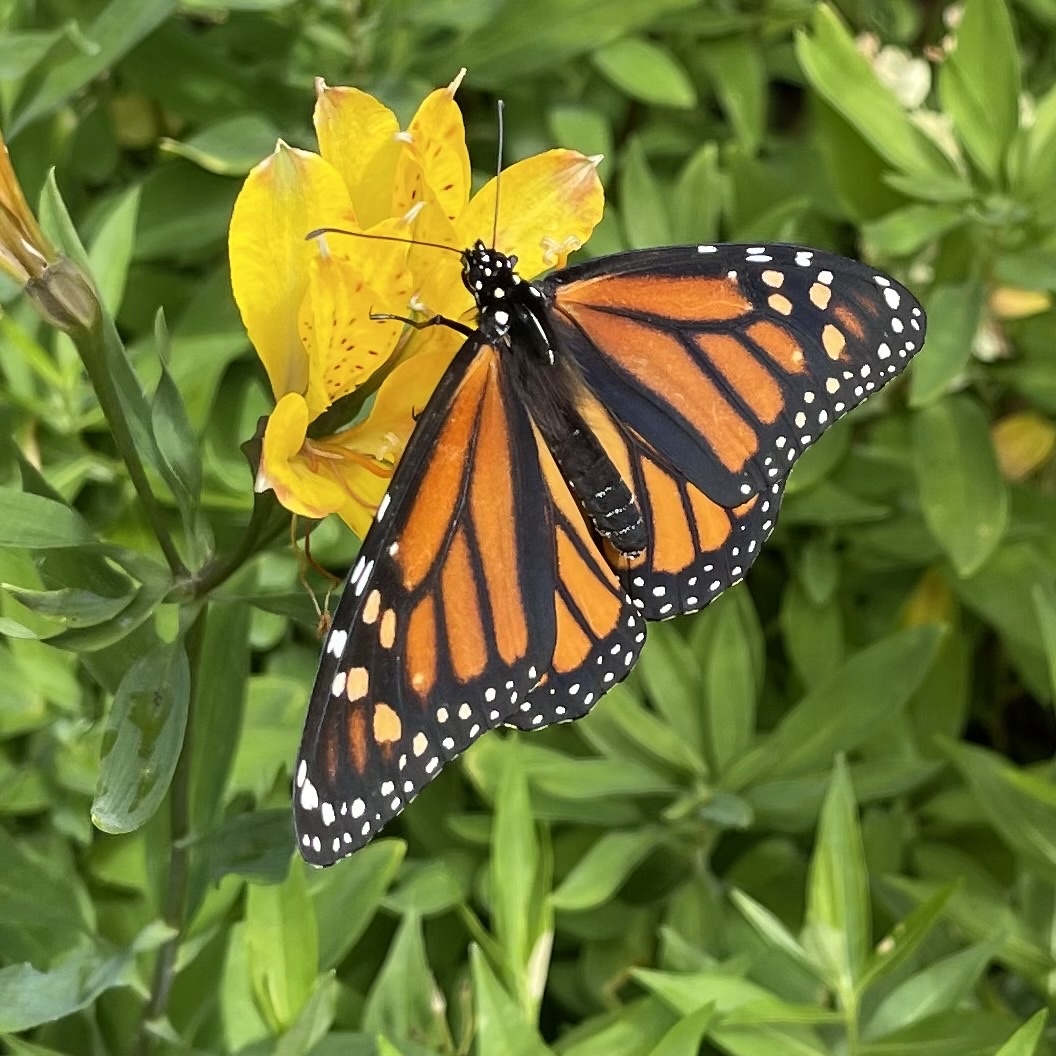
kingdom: Animalia
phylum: Arthropoda
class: Insecta
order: Lepidoptera
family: Nymphalidae
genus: Danaus
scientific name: Danaus plexippus
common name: Monarch
